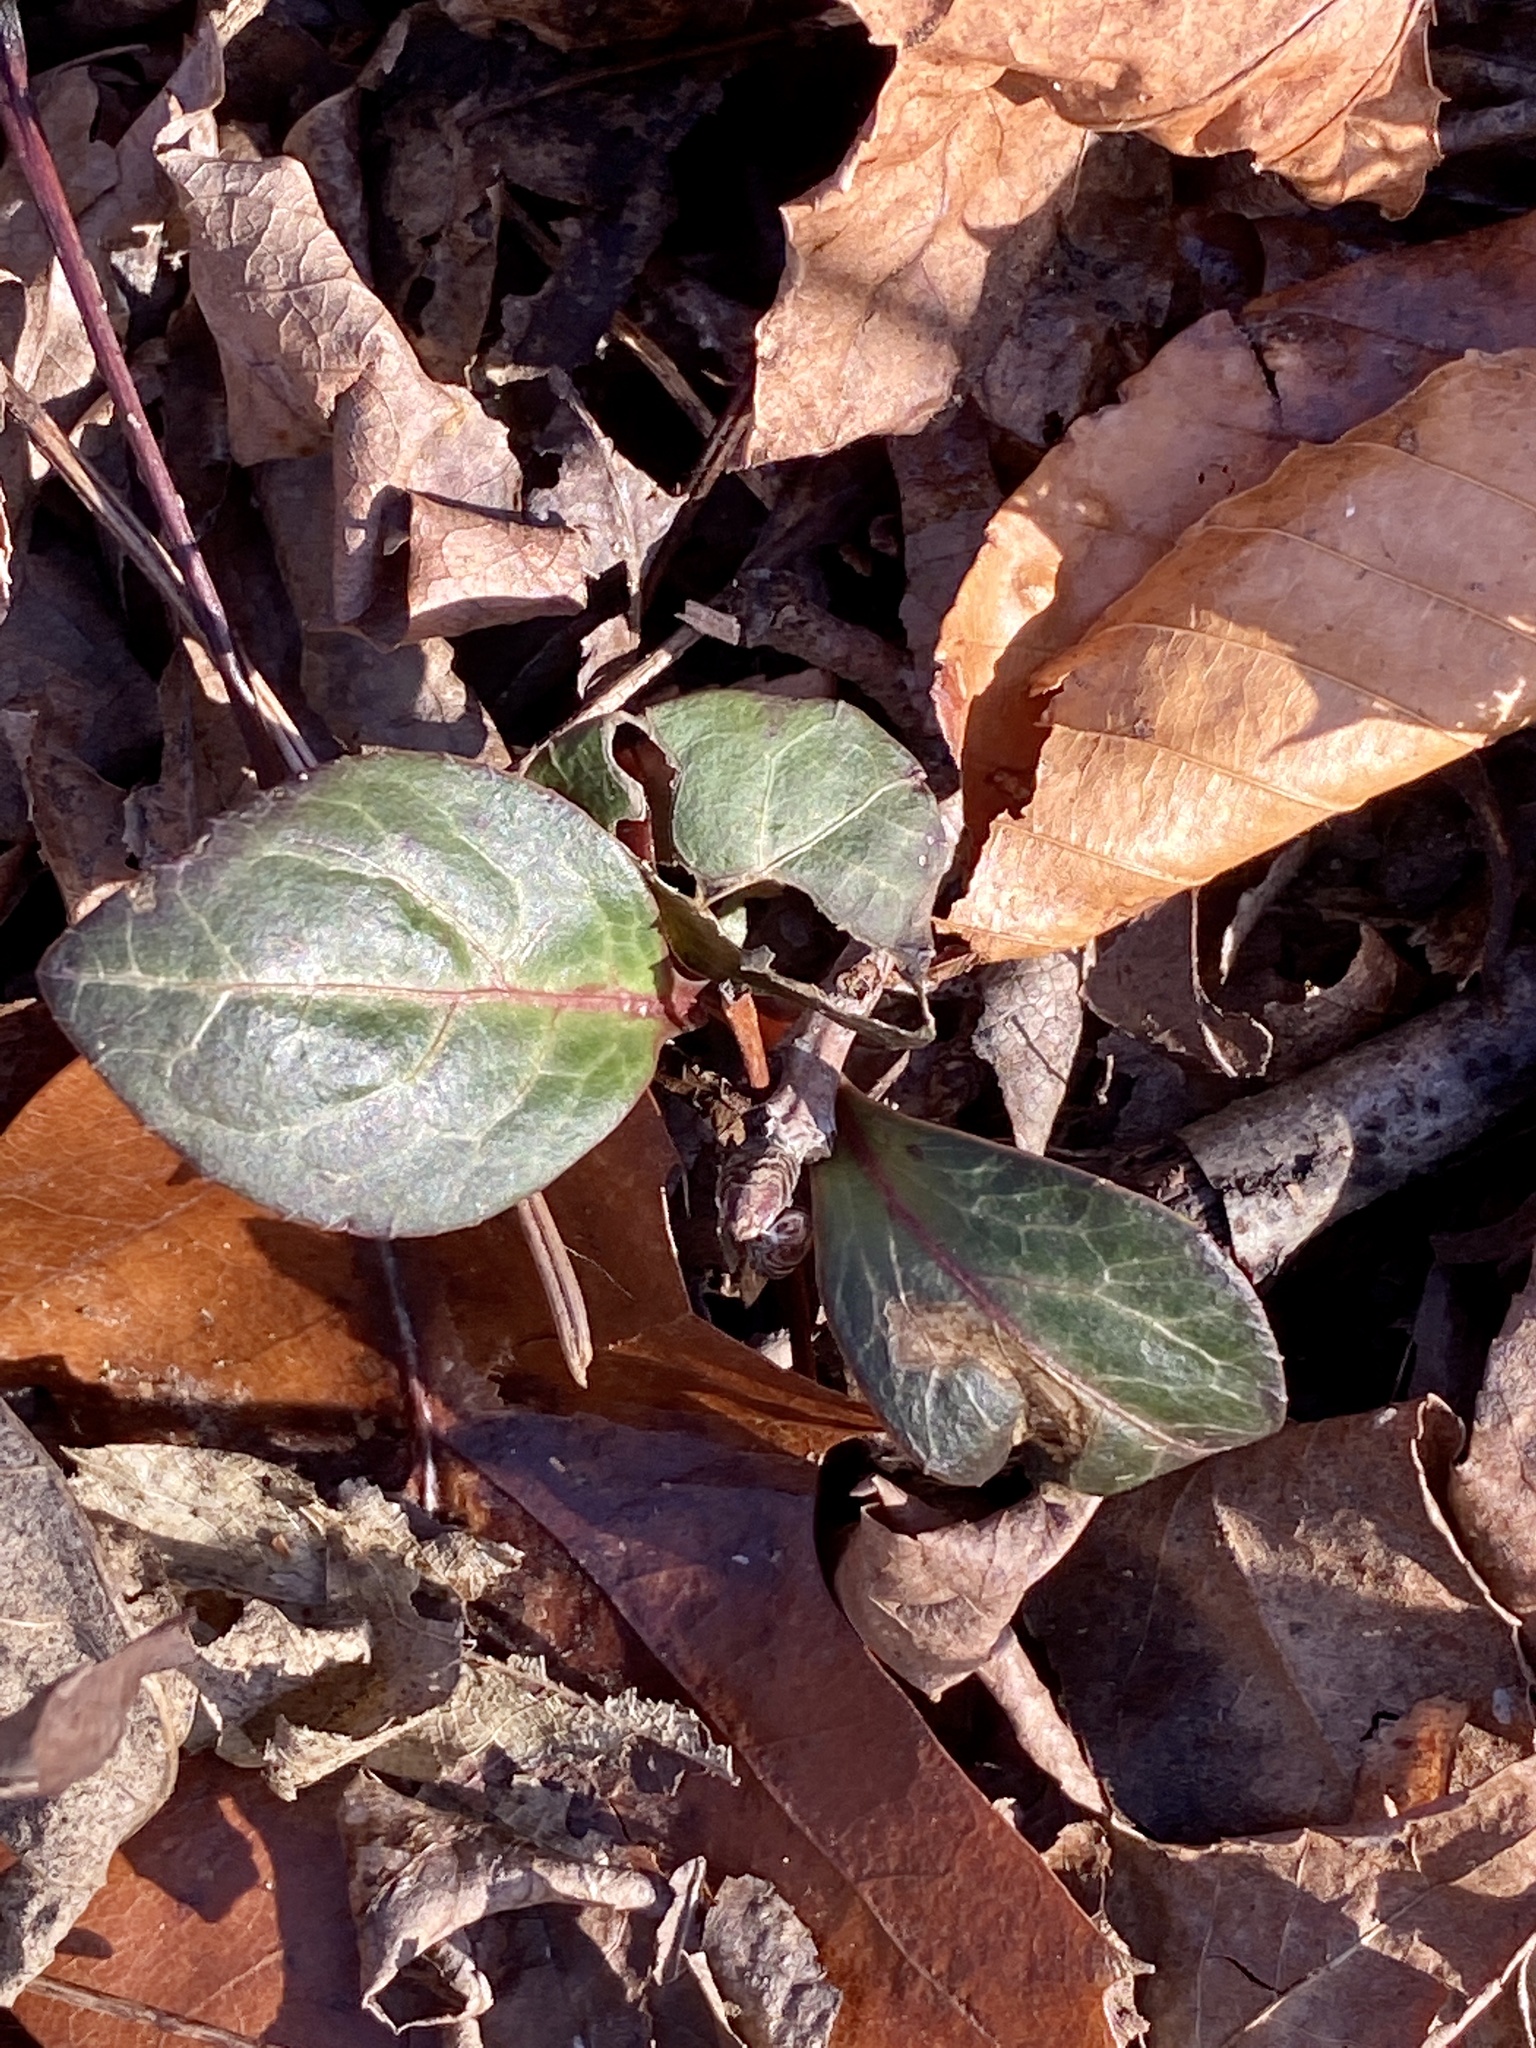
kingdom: Plantae
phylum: Tracheophyta
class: Magnoliopsida
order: Ericales
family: Ericaceae
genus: Pyrola
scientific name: Pyrola americana
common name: American wintergreen
